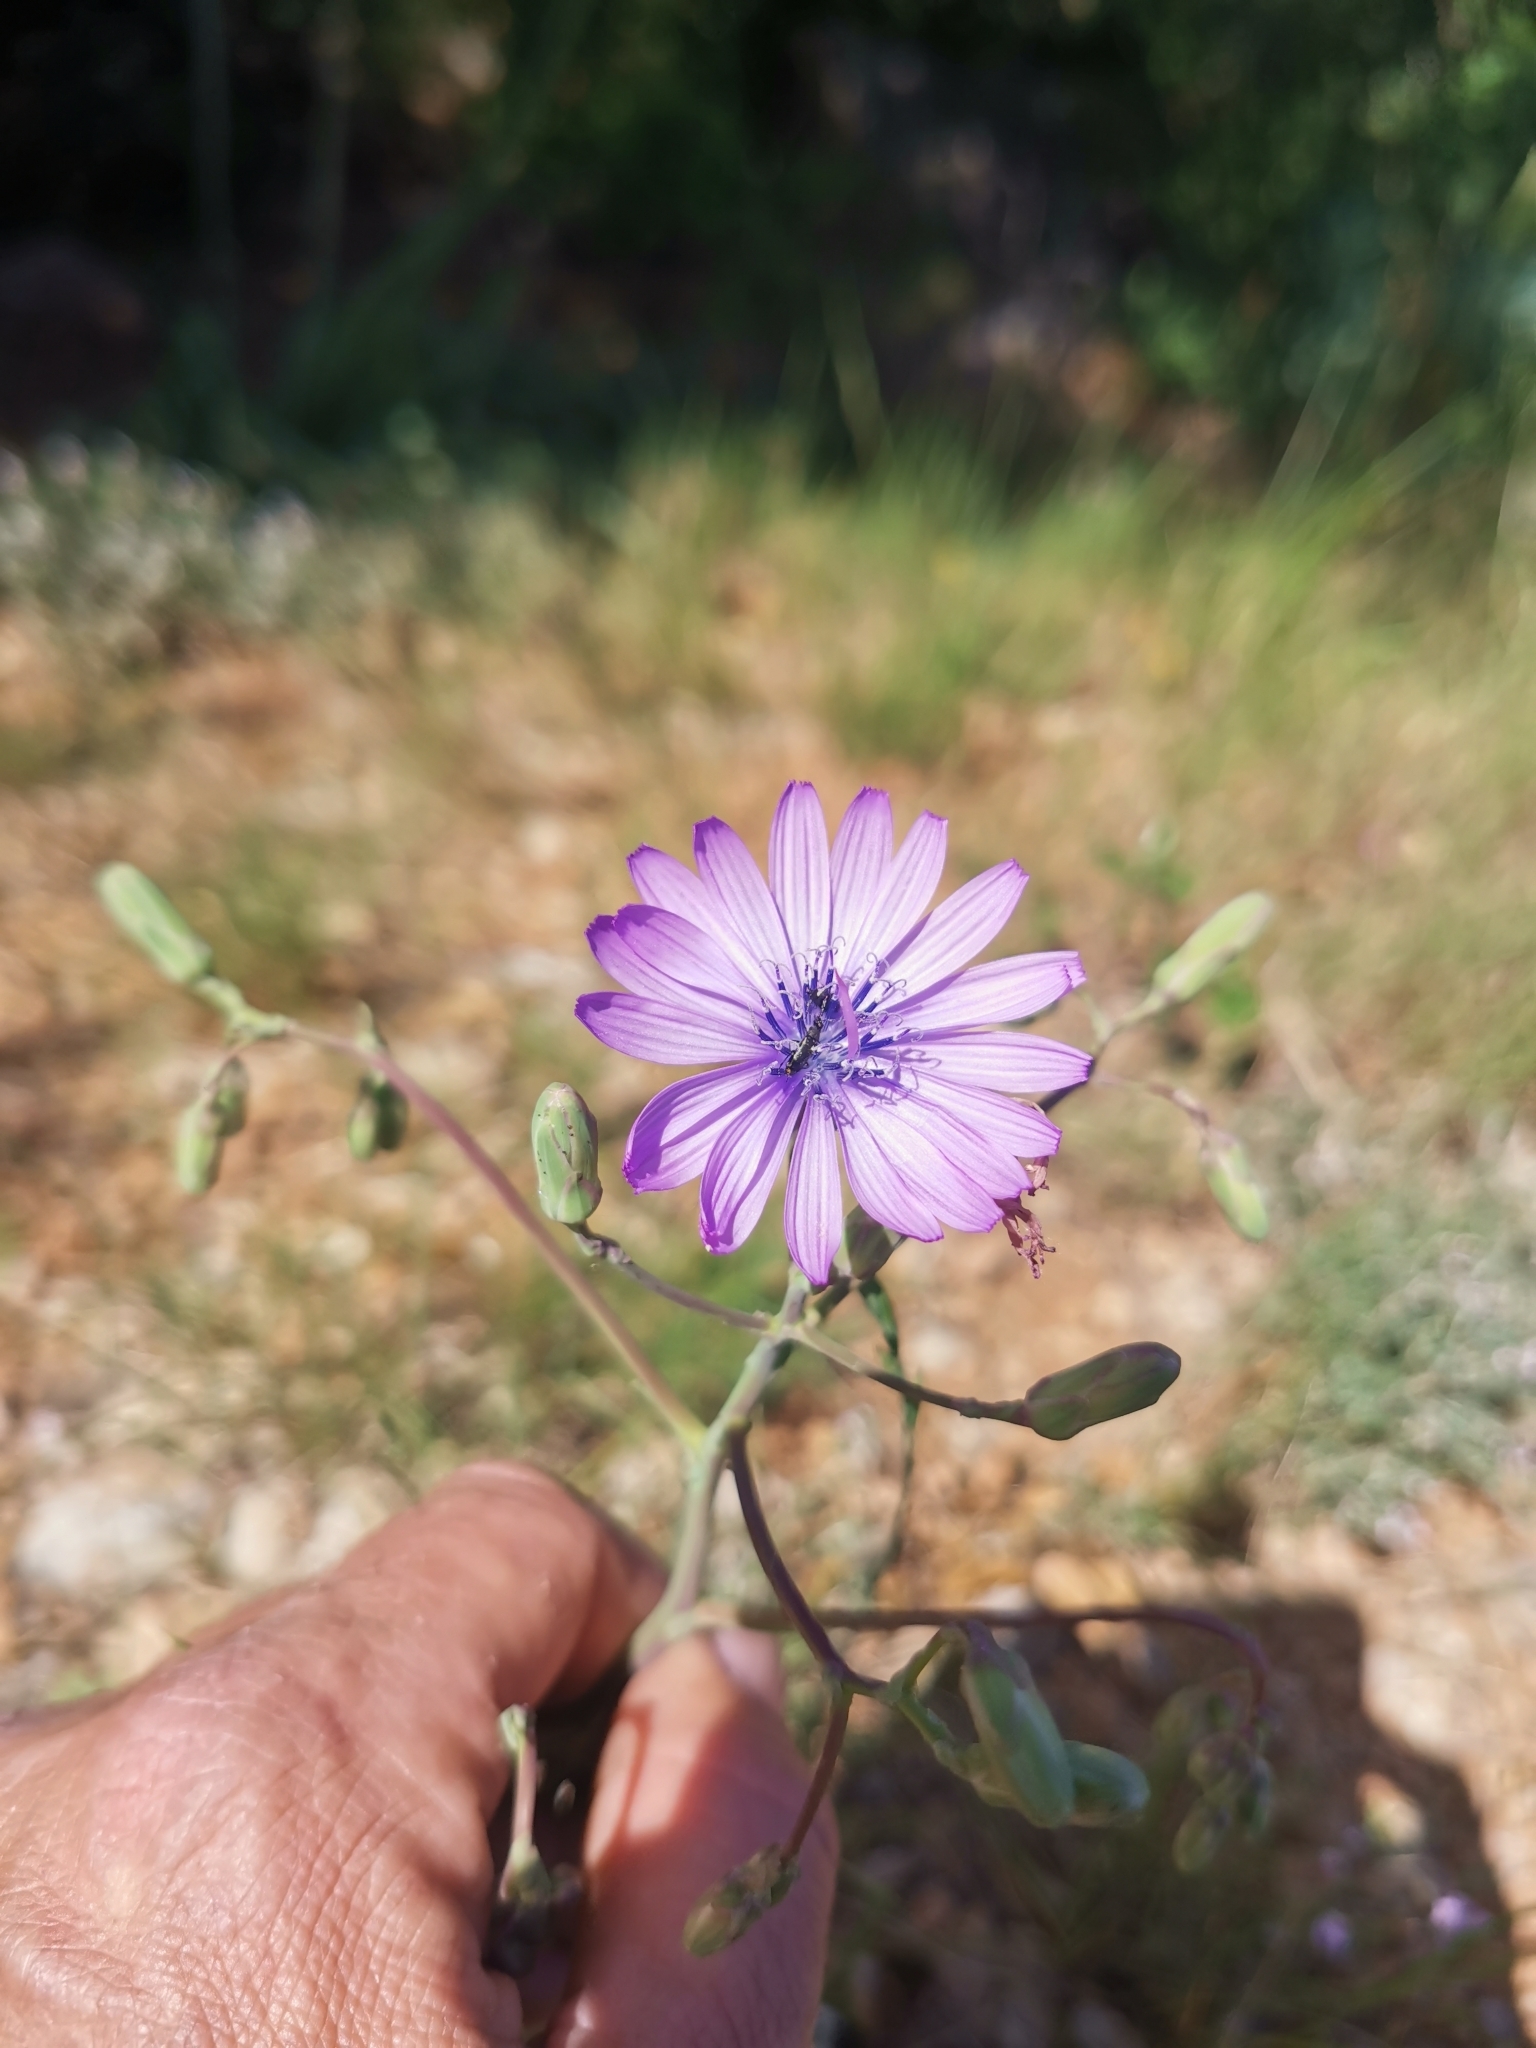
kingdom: Plantae
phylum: Tracheophyta
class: Magnoliopsida
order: Asterales
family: Asteraceae
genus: Lactuca
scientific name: Lactuca perennis
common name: Mountain lettuce
